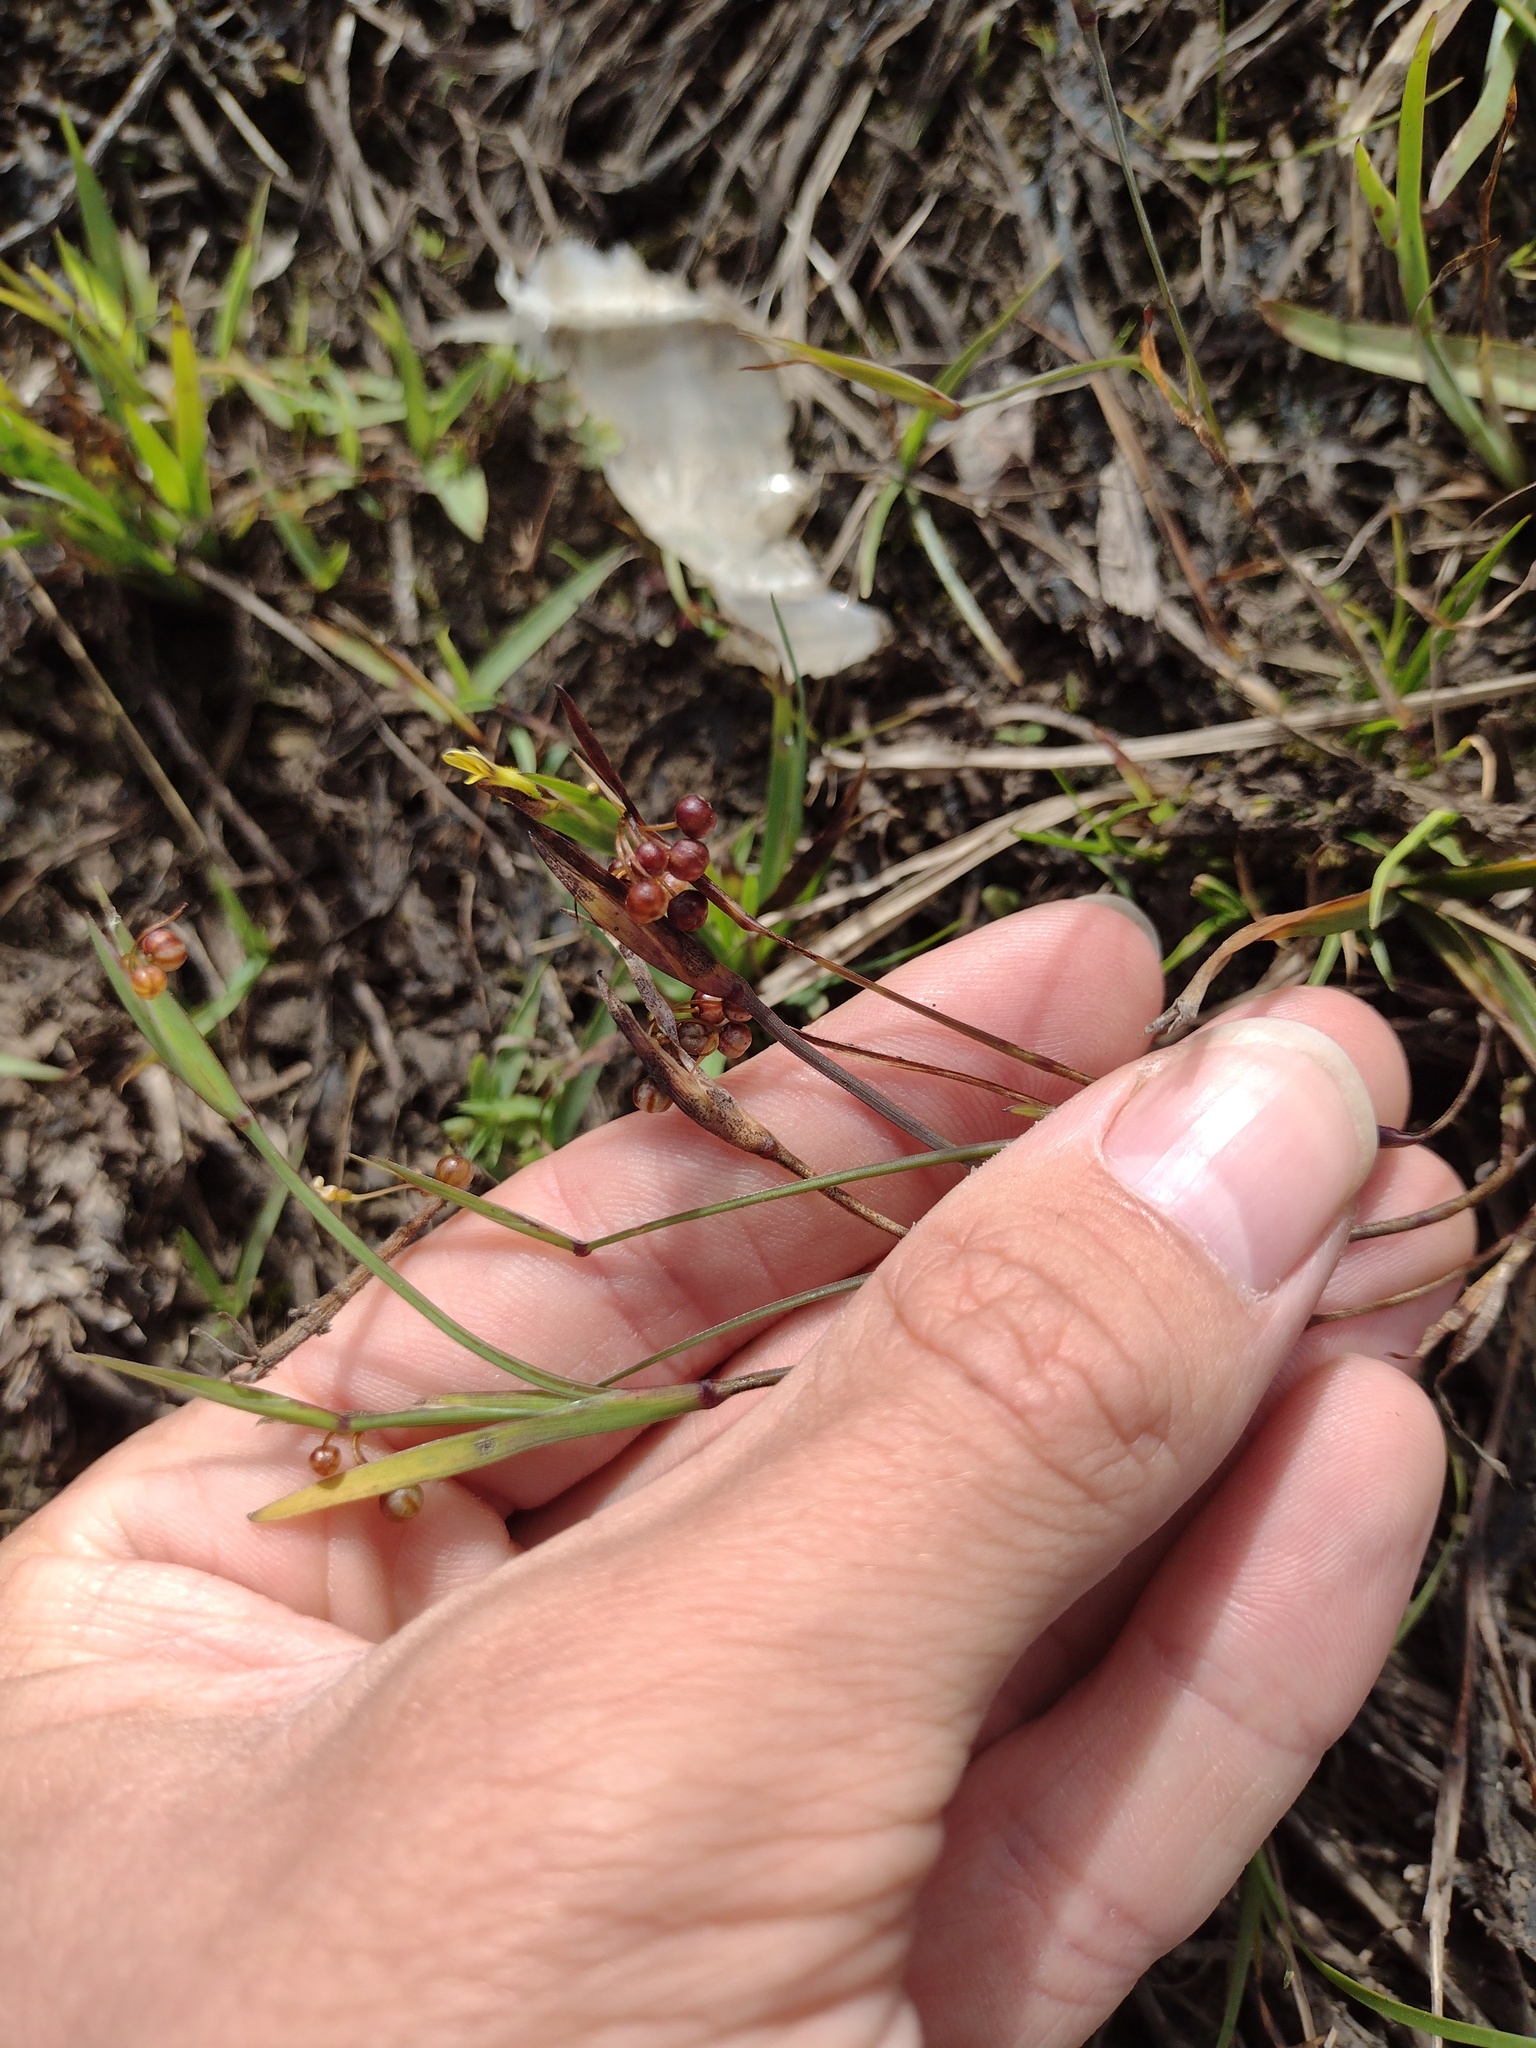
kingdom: Plantae
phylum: Tracheophyta
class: Liliopsida
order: Asparagales
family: Iridaceae
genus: Sisyrinchium
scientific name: Sisyrinchium micranthum
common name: Bermuda pigroot
